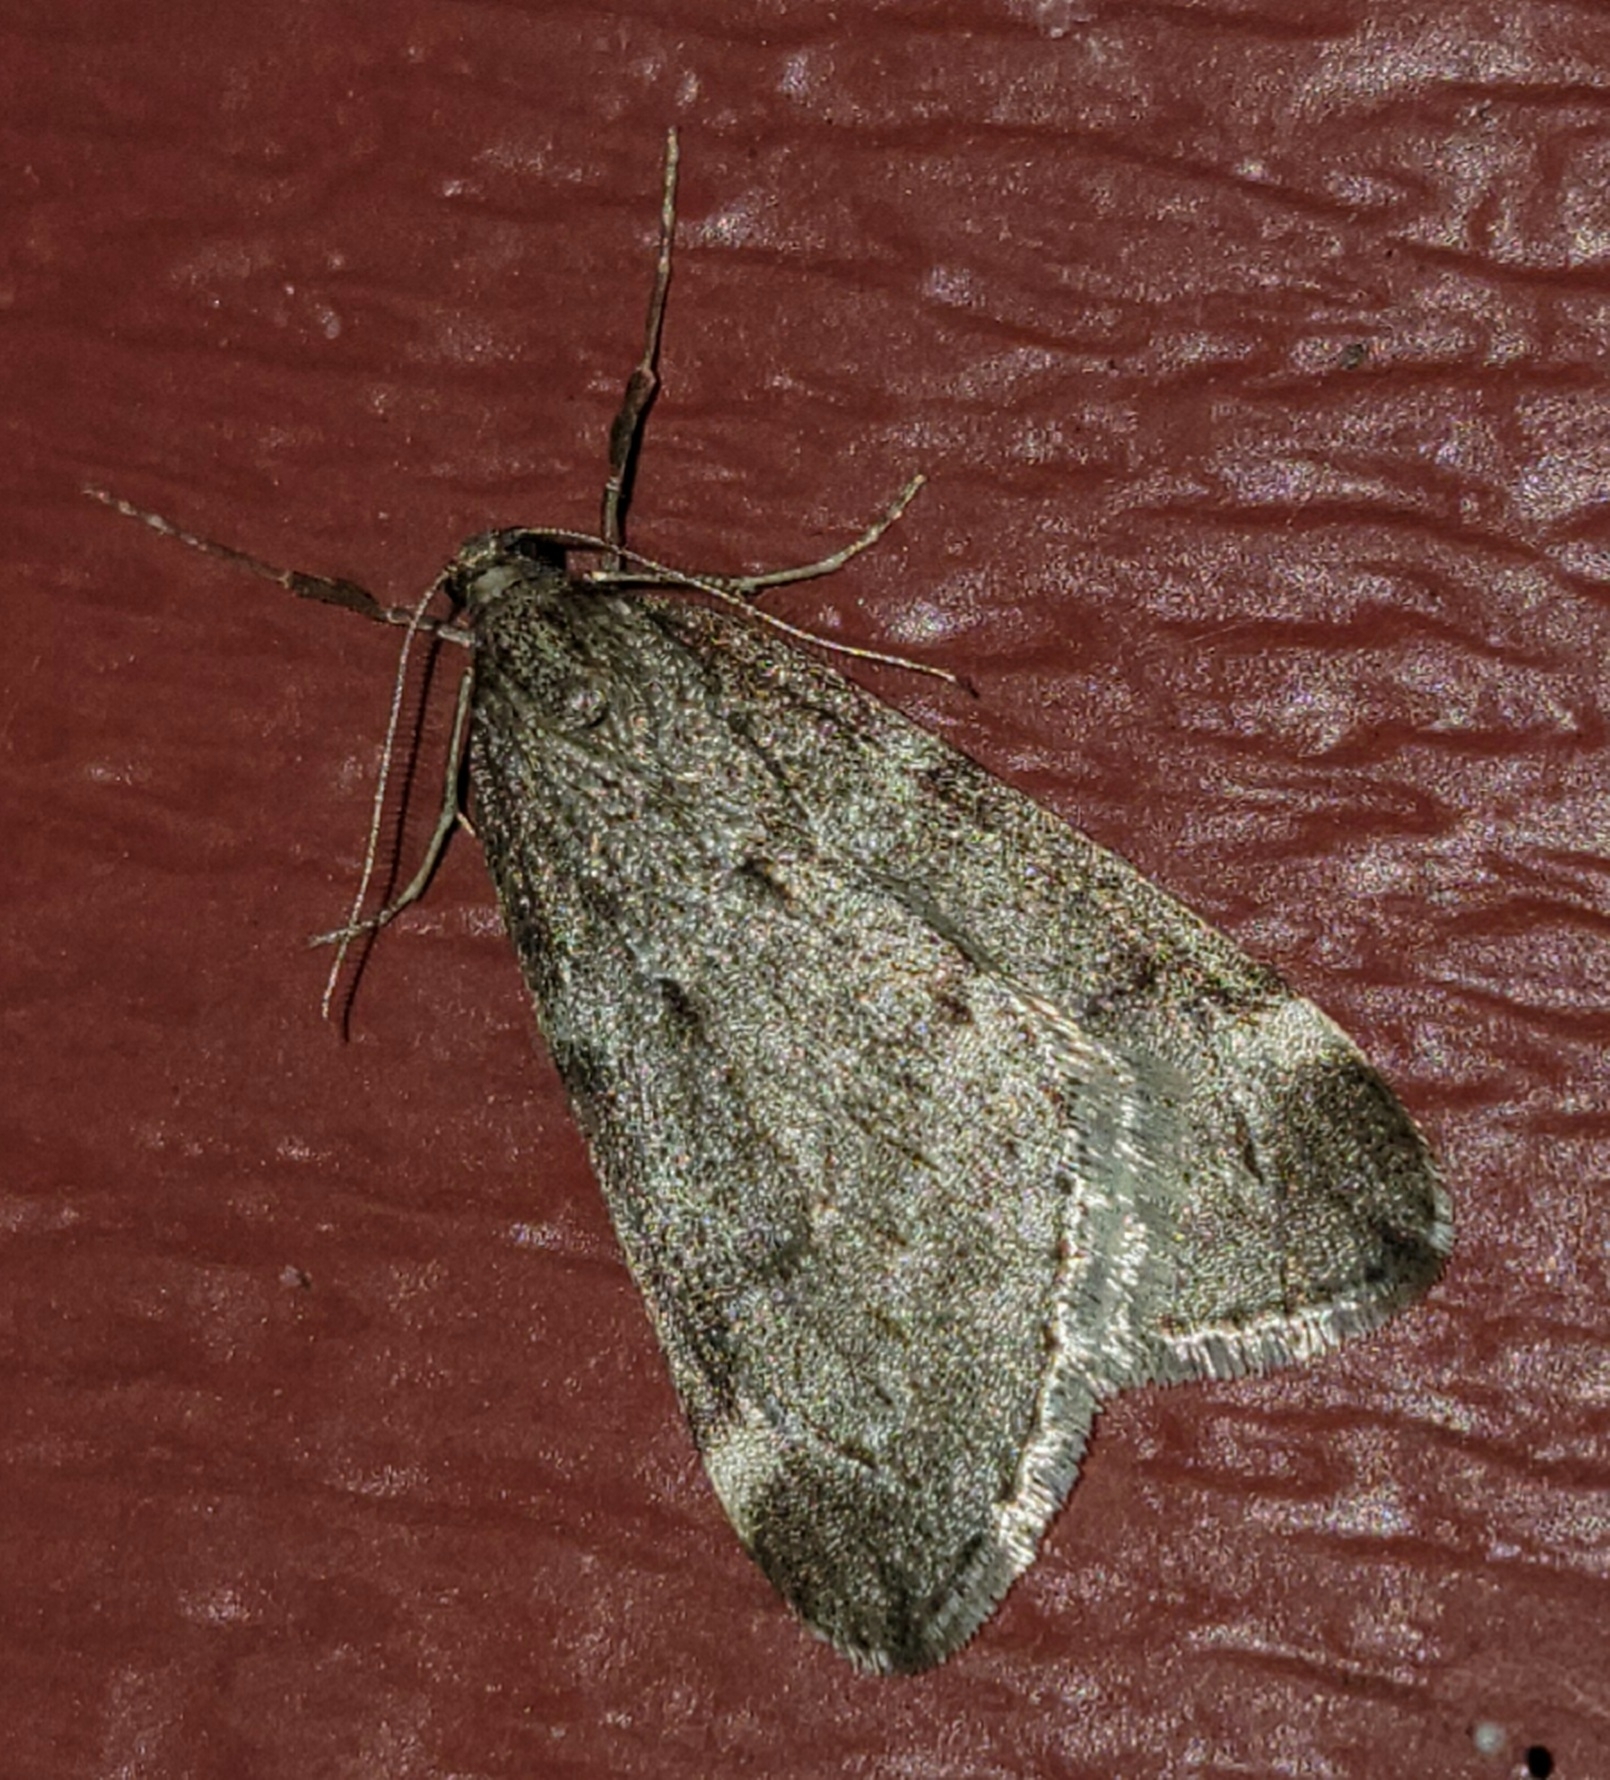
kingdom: Animalia
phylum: Arthropoda
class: Insecta
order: Lepidoptera
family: Geometridae
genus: Alsophila
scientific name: Alsophila pometaria
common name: Fall cankerworm
